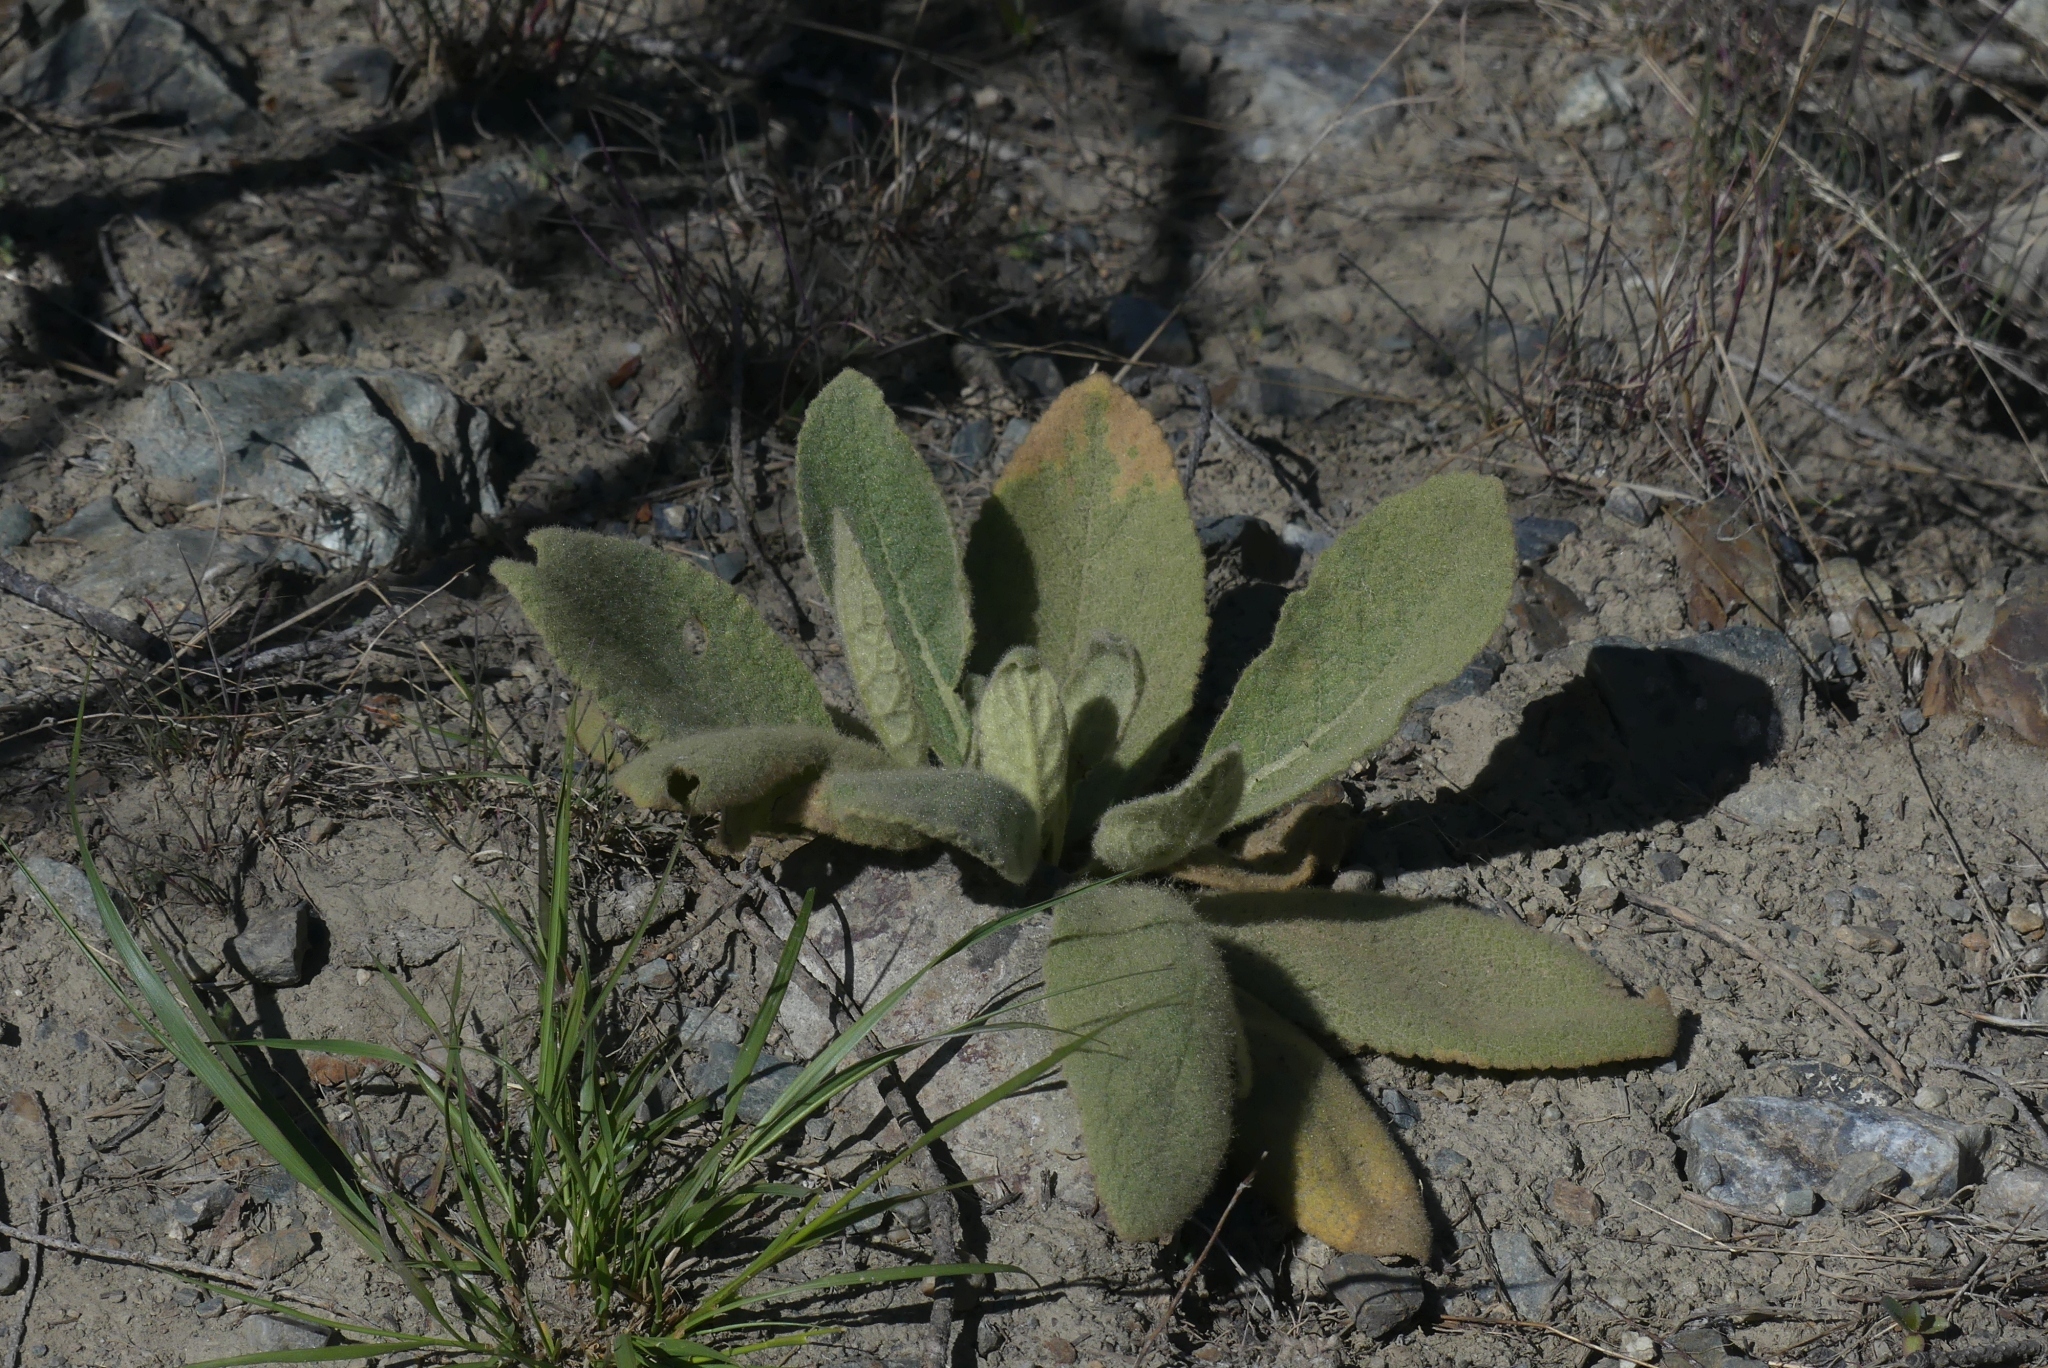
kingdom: Plantae
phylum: Tracheophyta
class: Magnoliopsida
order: Lamiales
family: Scrophulariaceae
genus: Verbascum
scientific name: Verbascum thapsus
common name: Common mullein
